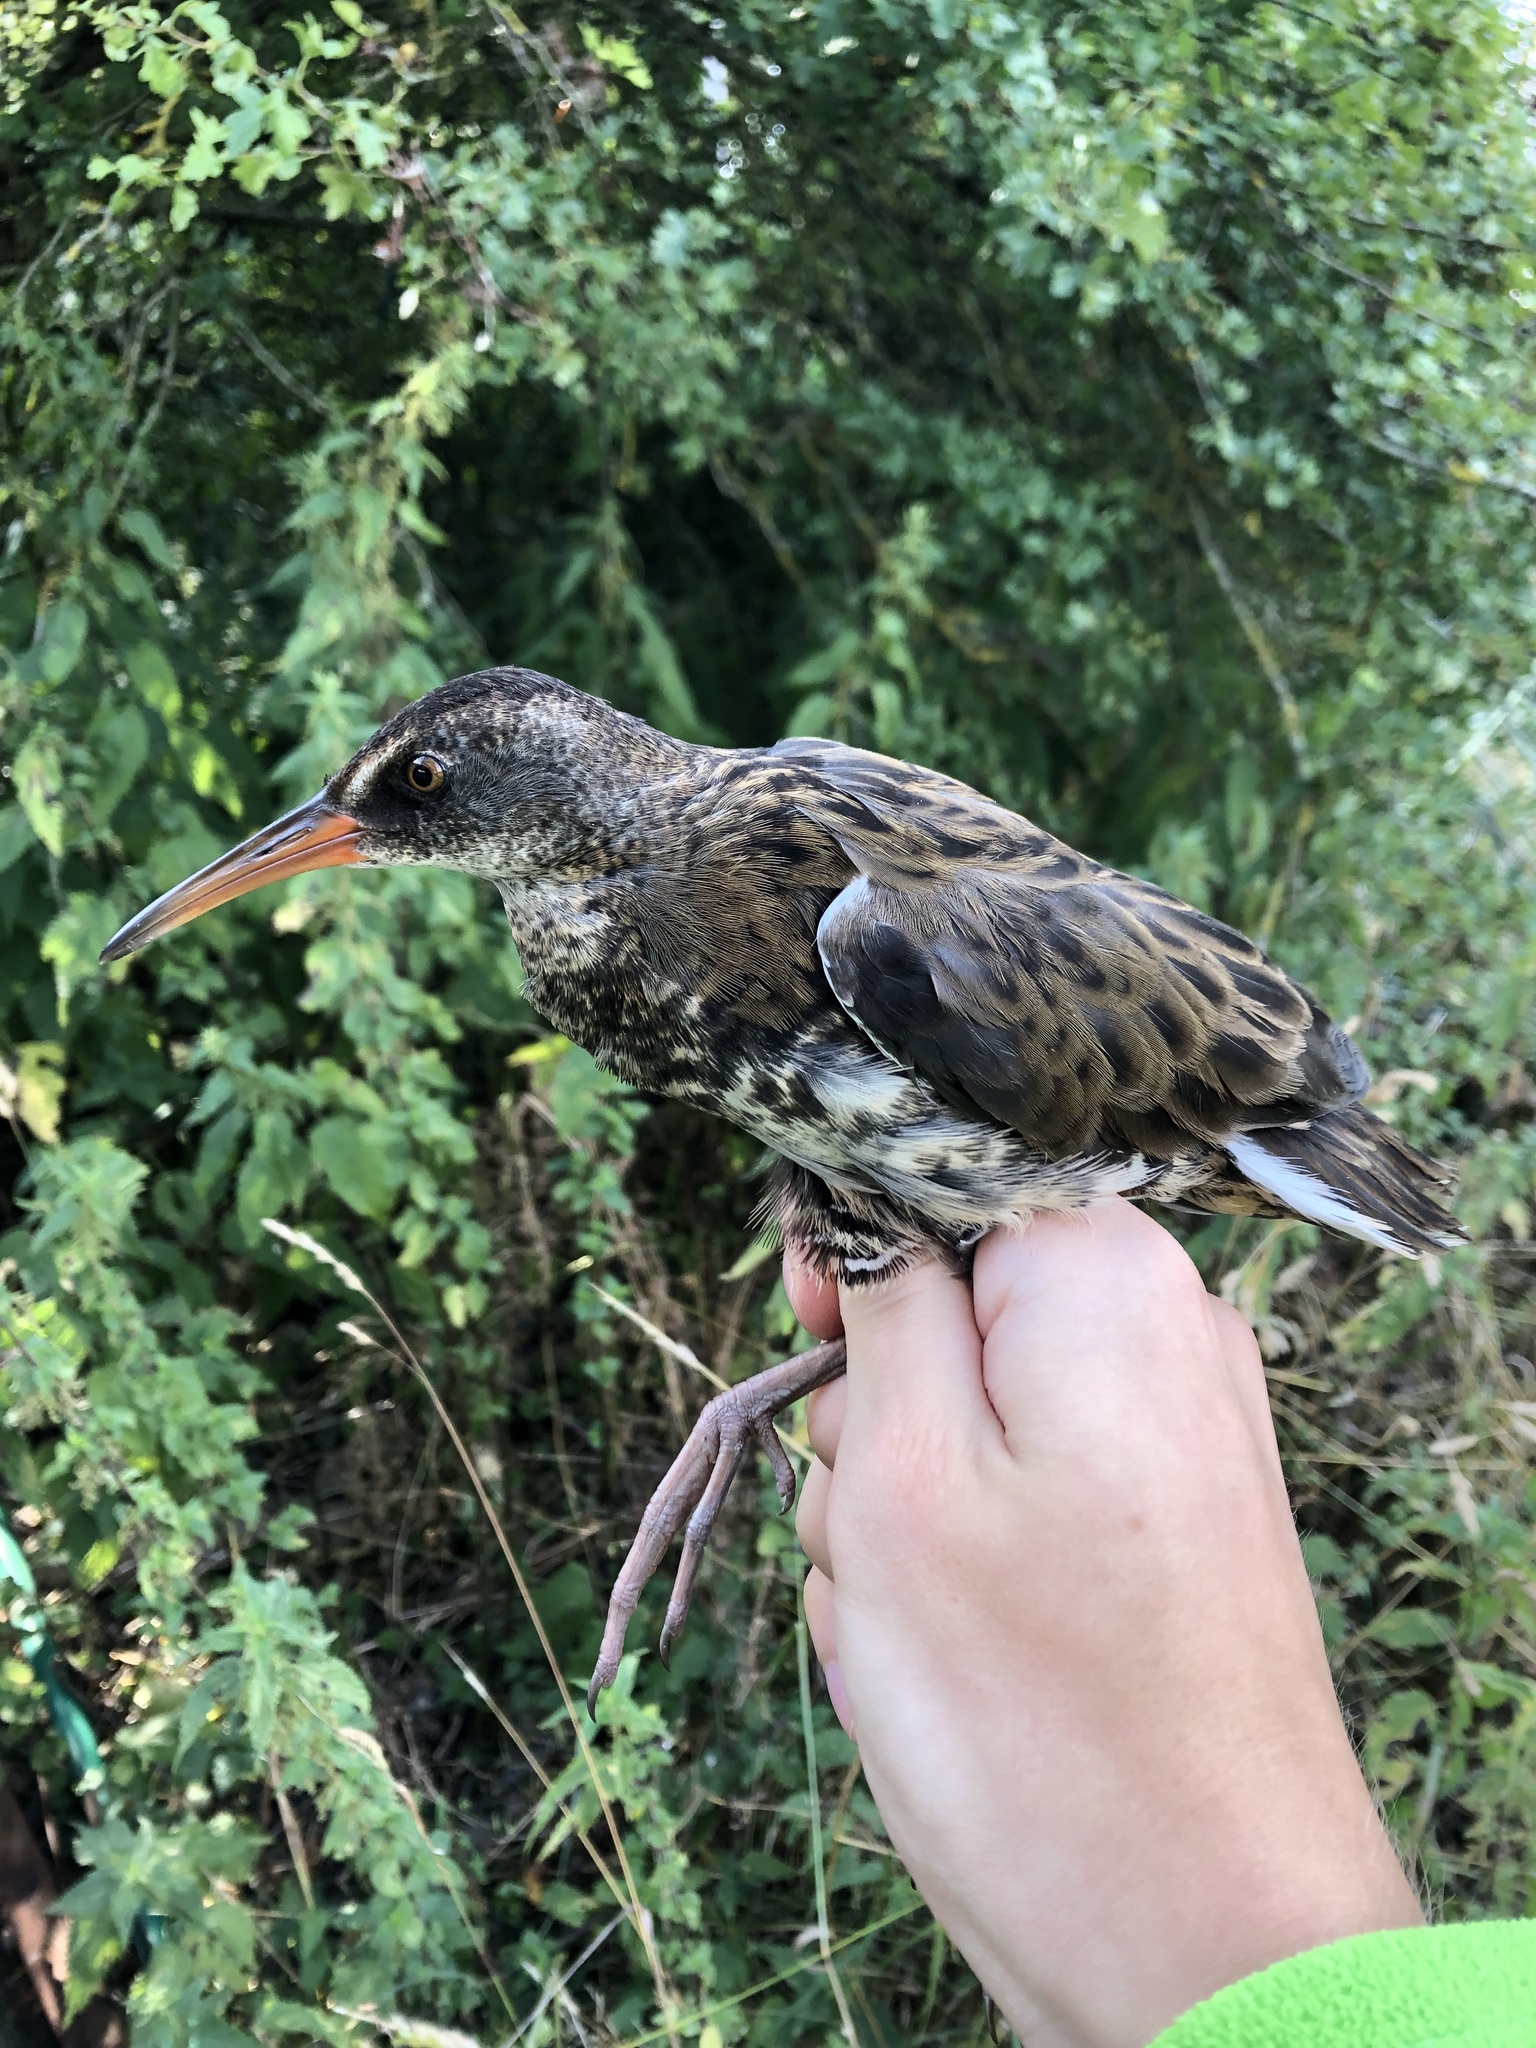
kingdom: Animalia
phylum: Chordata
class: Aves
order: Gruiformes
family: Rallidae
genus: Rallus
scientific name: Rallus aquaticus
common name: Water rail
